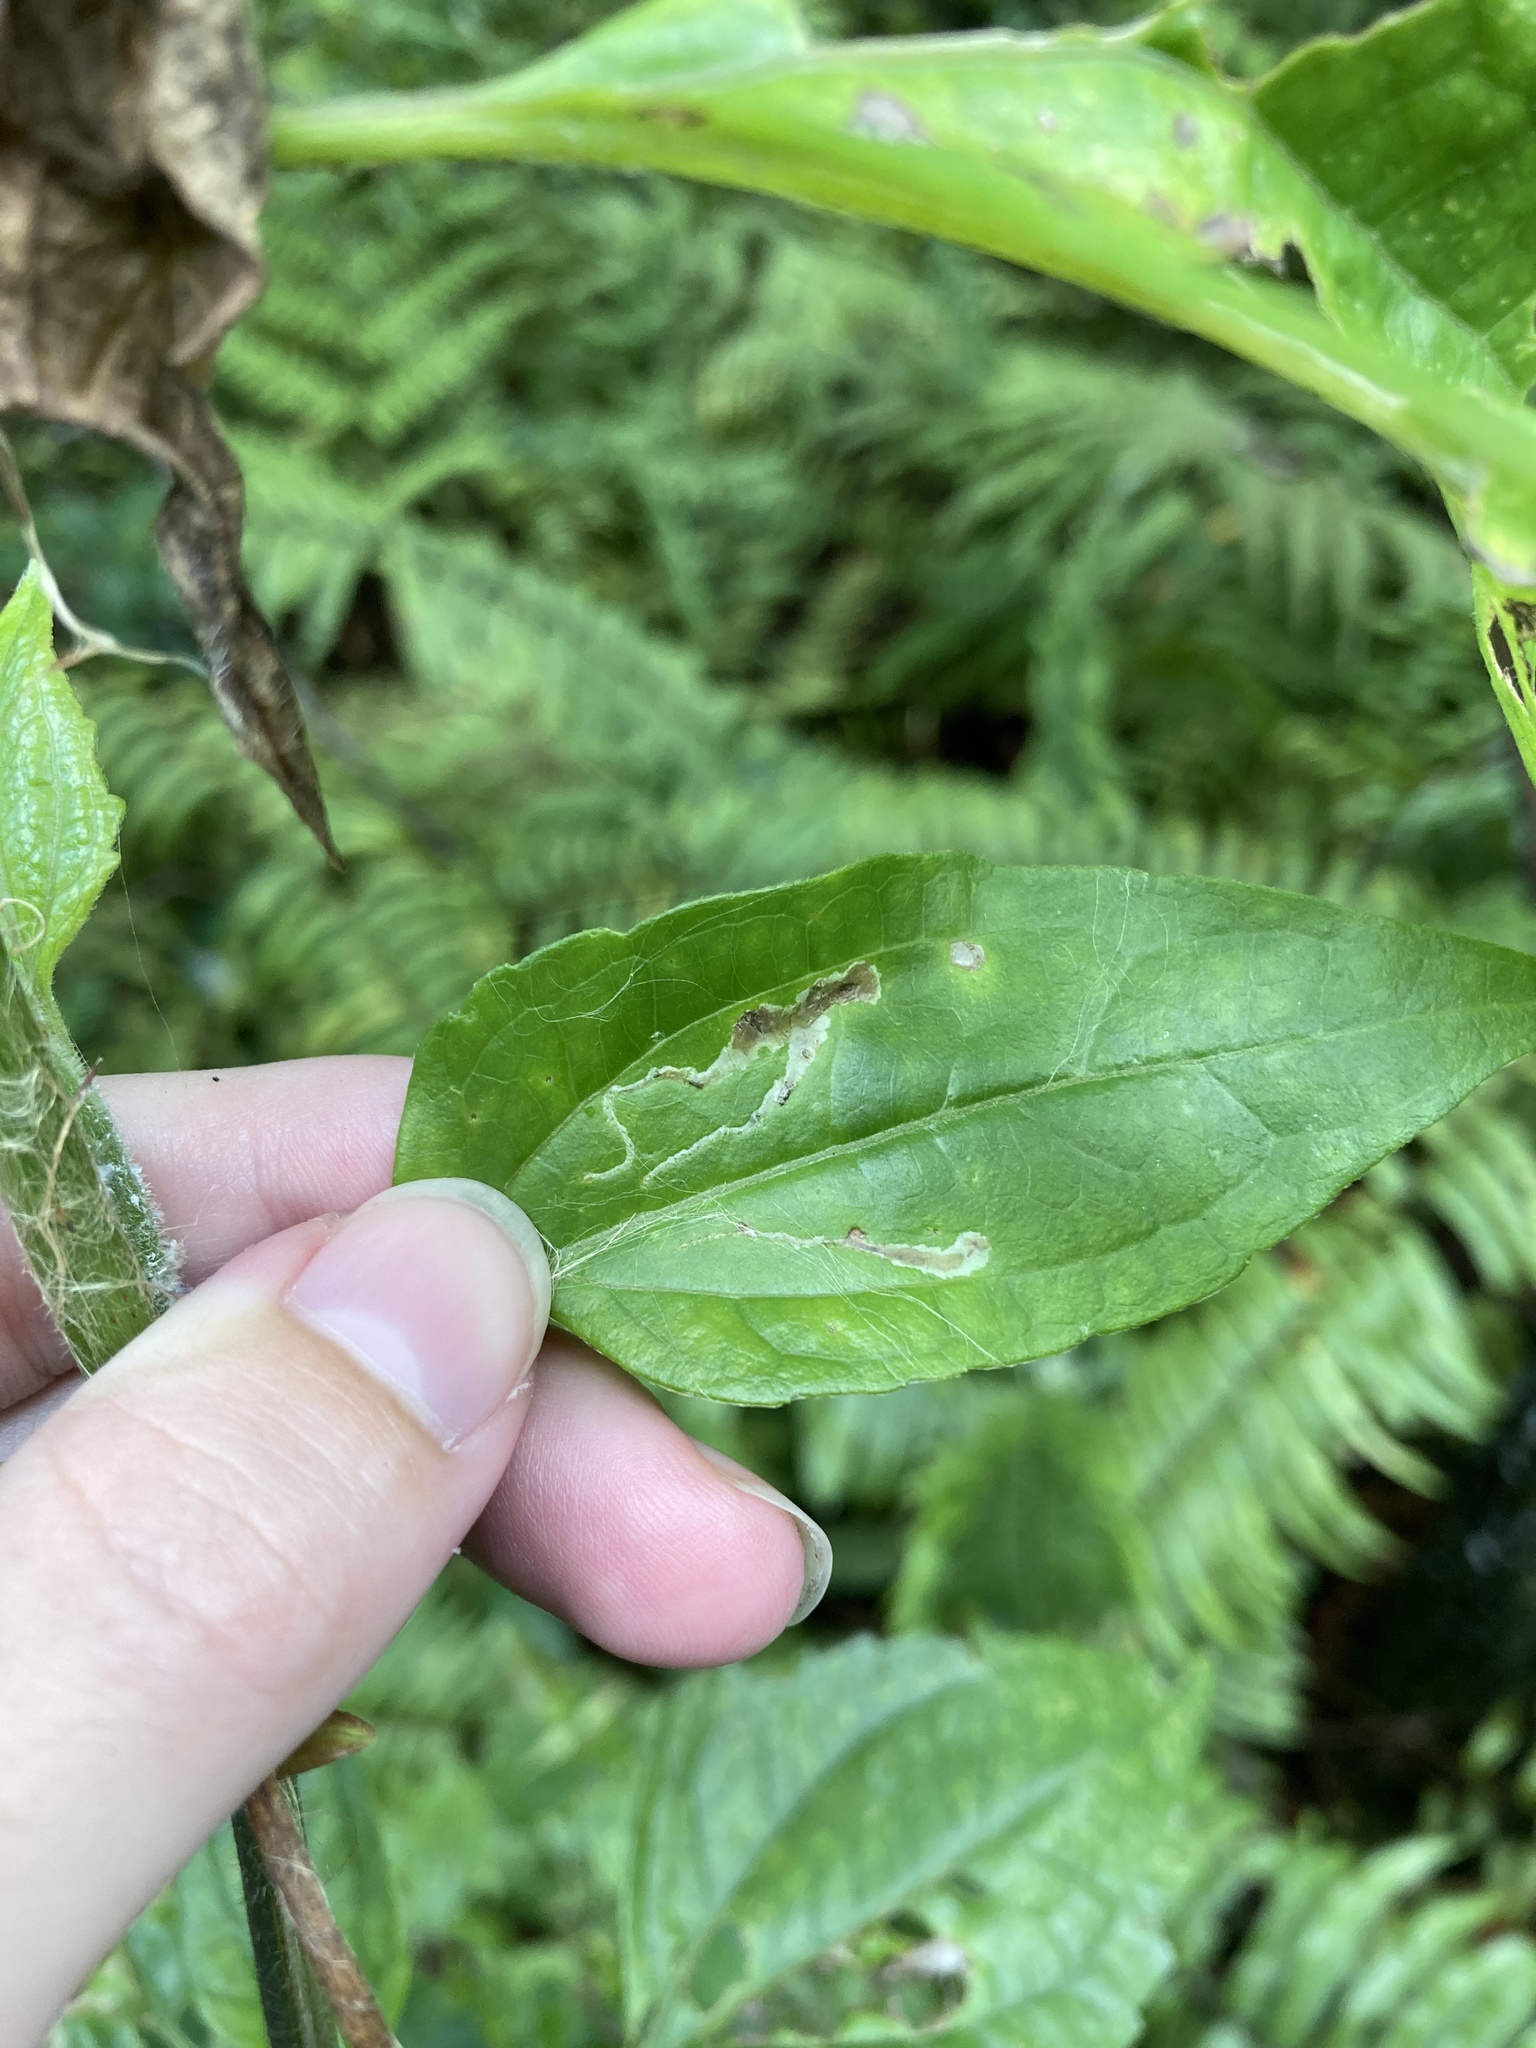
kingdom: Animalia
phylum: Arthropoda
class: Insecta
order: Diptera
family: Agromyzidae
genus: Calycomyza
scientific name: Calycomyza eupatorivora
